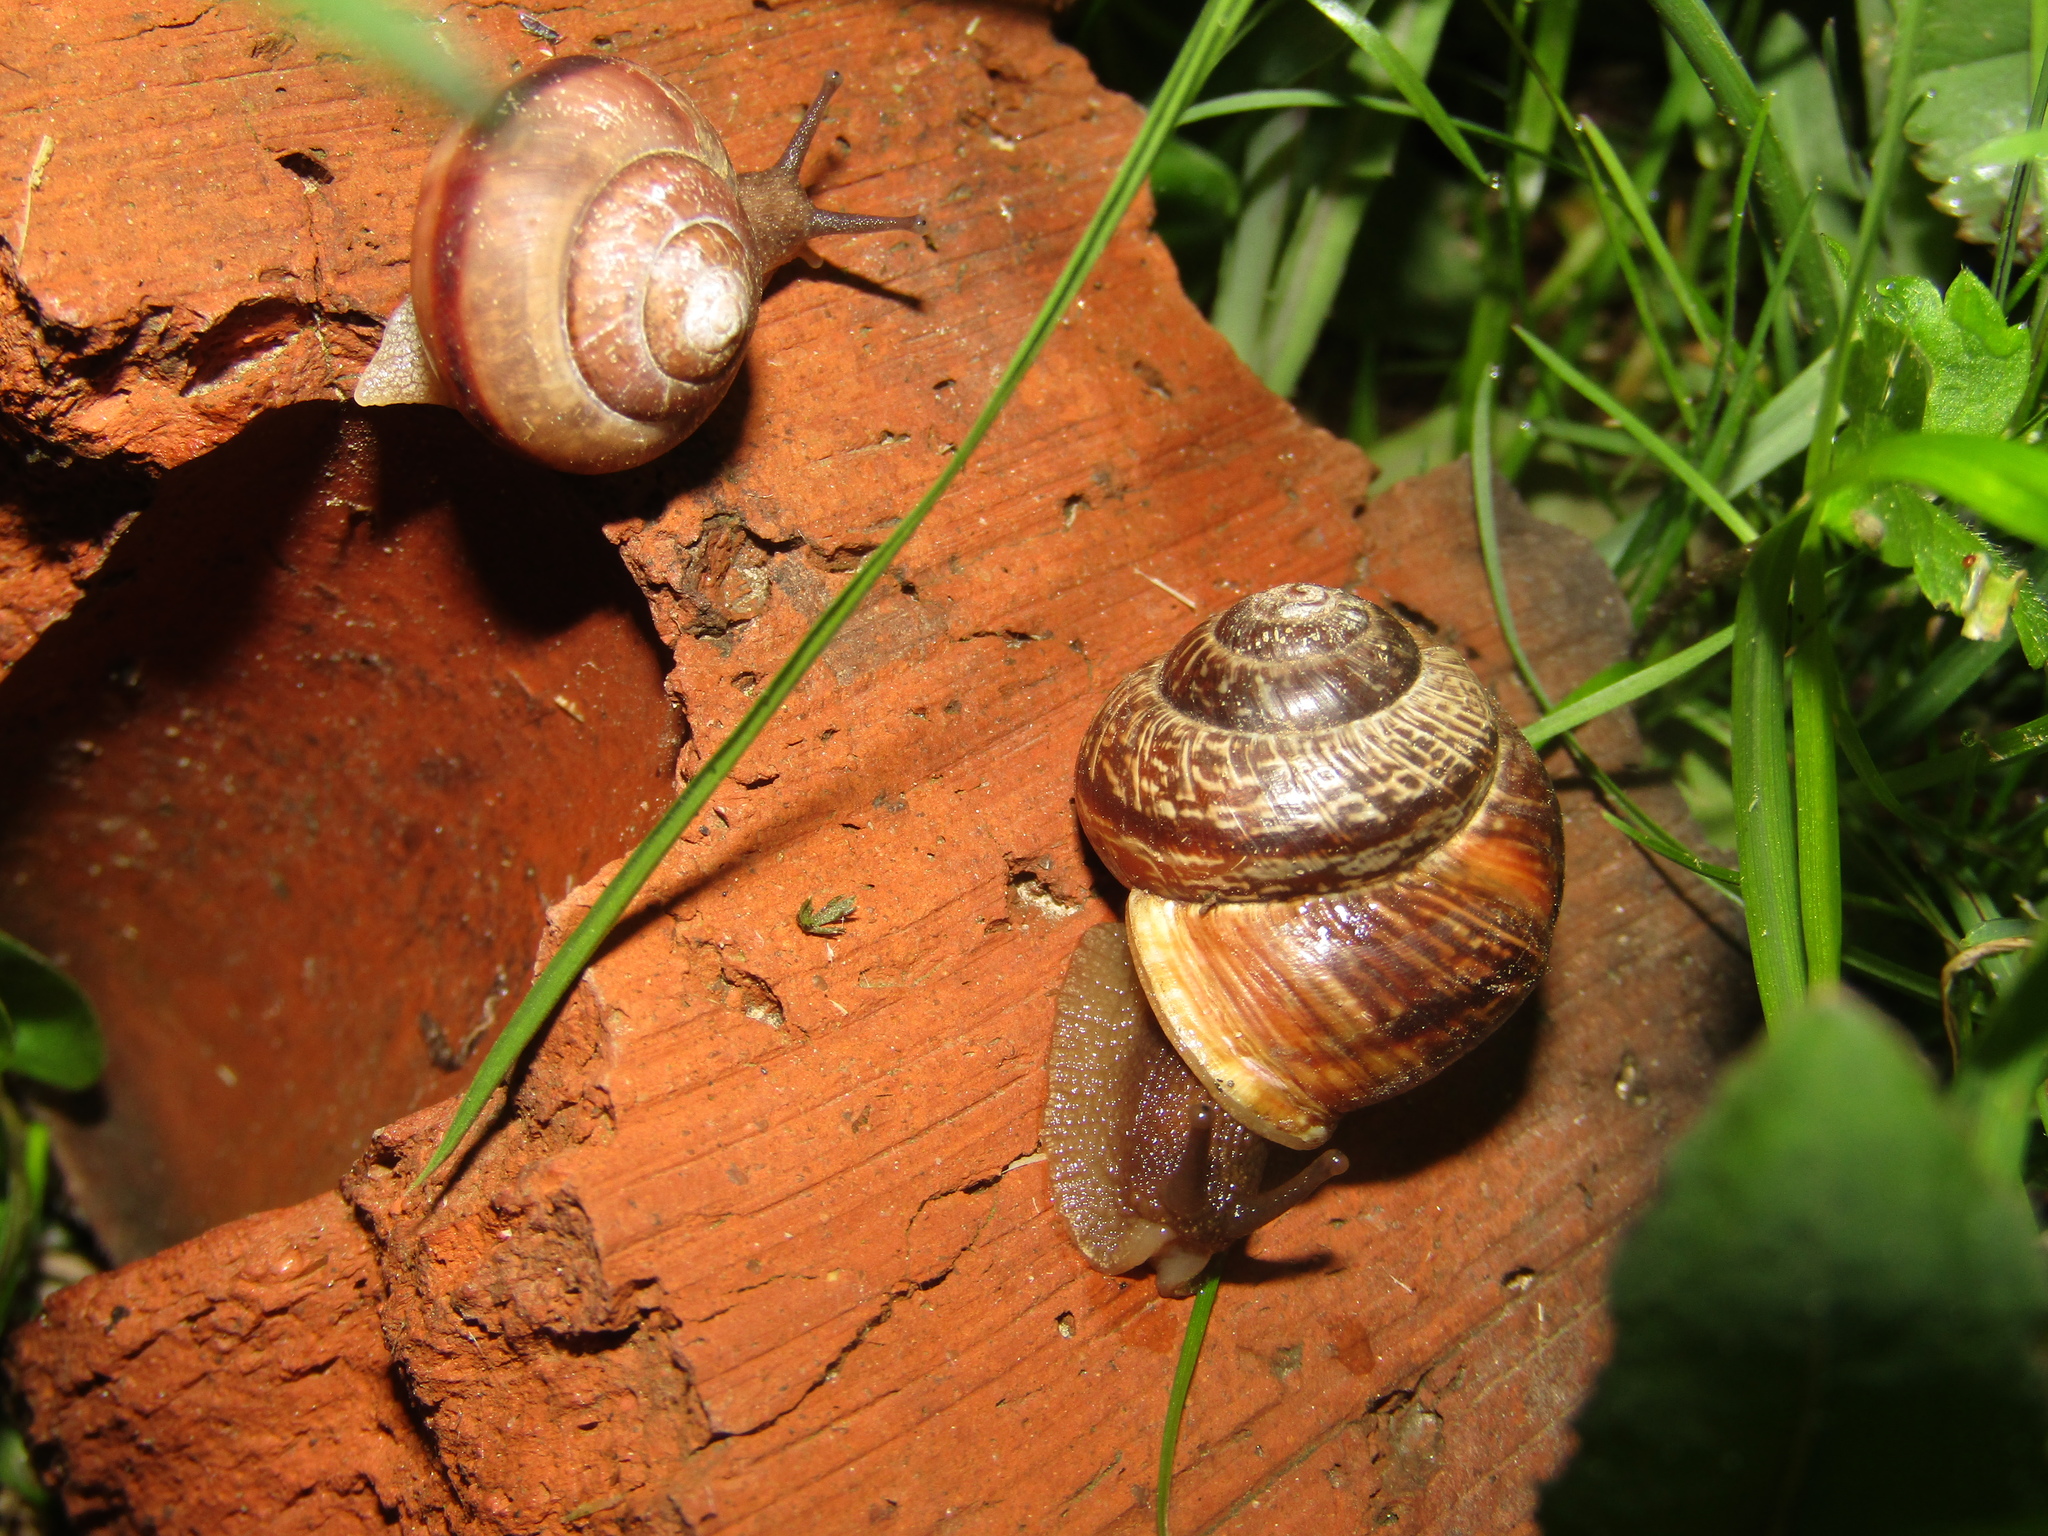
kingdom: Animalia
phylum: Mollusca
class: Gastropoda
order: Stylommatophora
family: Helicidae
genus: Arianta
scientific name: Arianta arbustorum
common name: Copse snail
